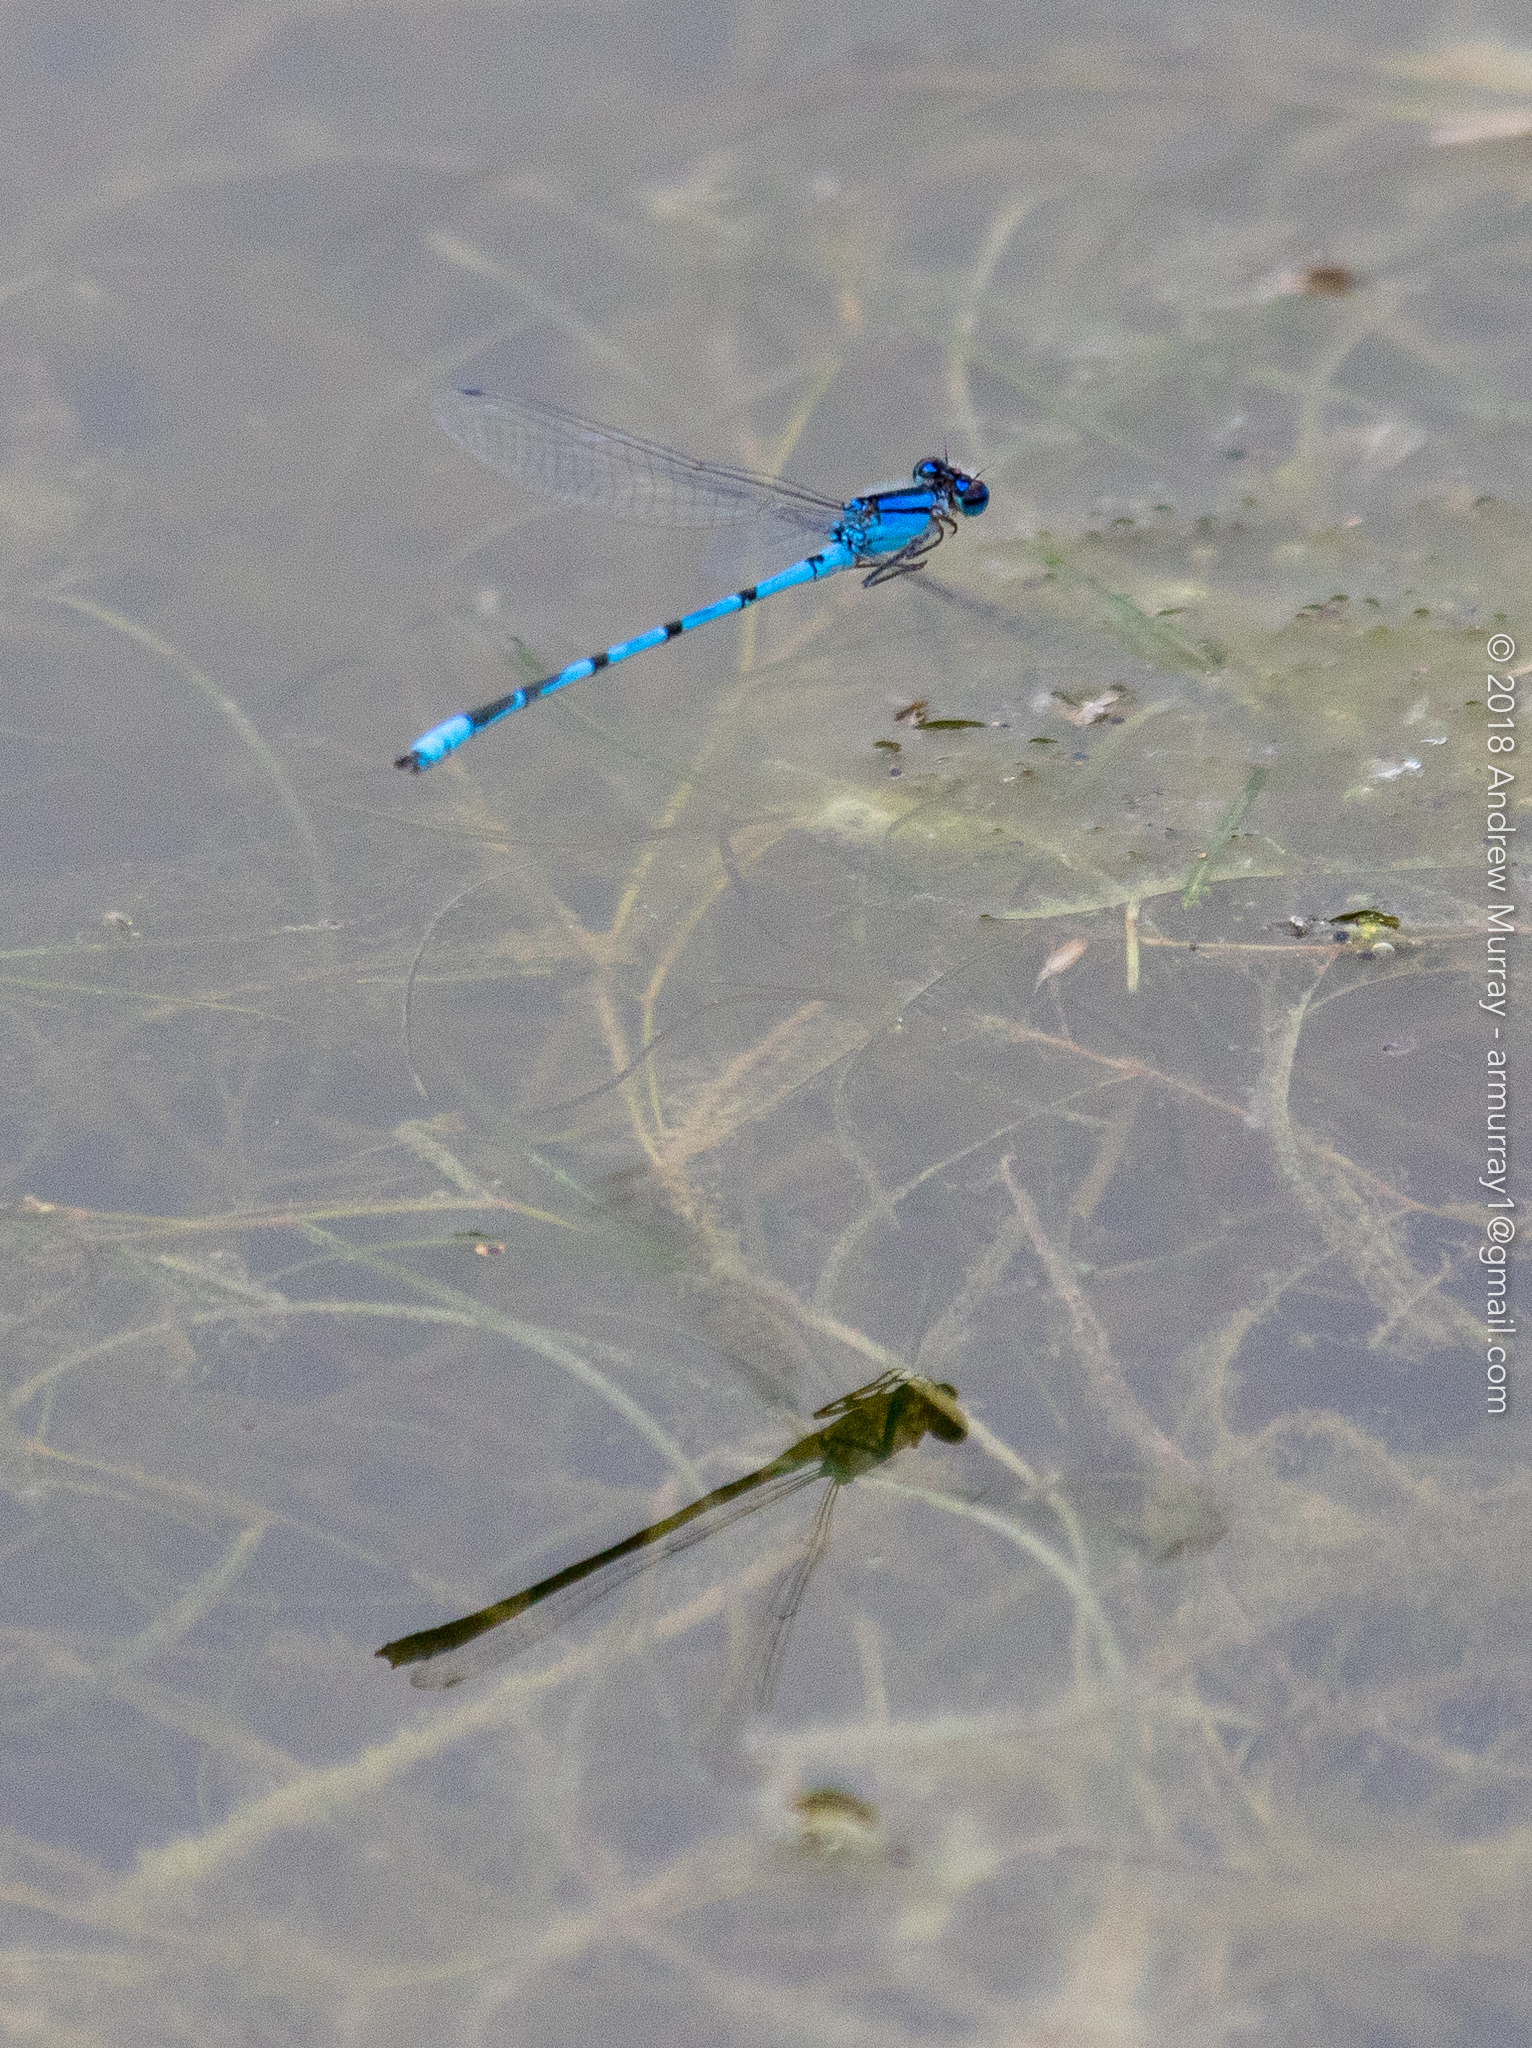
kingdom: Animalia
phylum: Arthropoda
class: Insecta
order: Odonata
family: Coenagrionidae
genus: Enallagma
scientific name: Enallagma civile
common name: Damselfly
